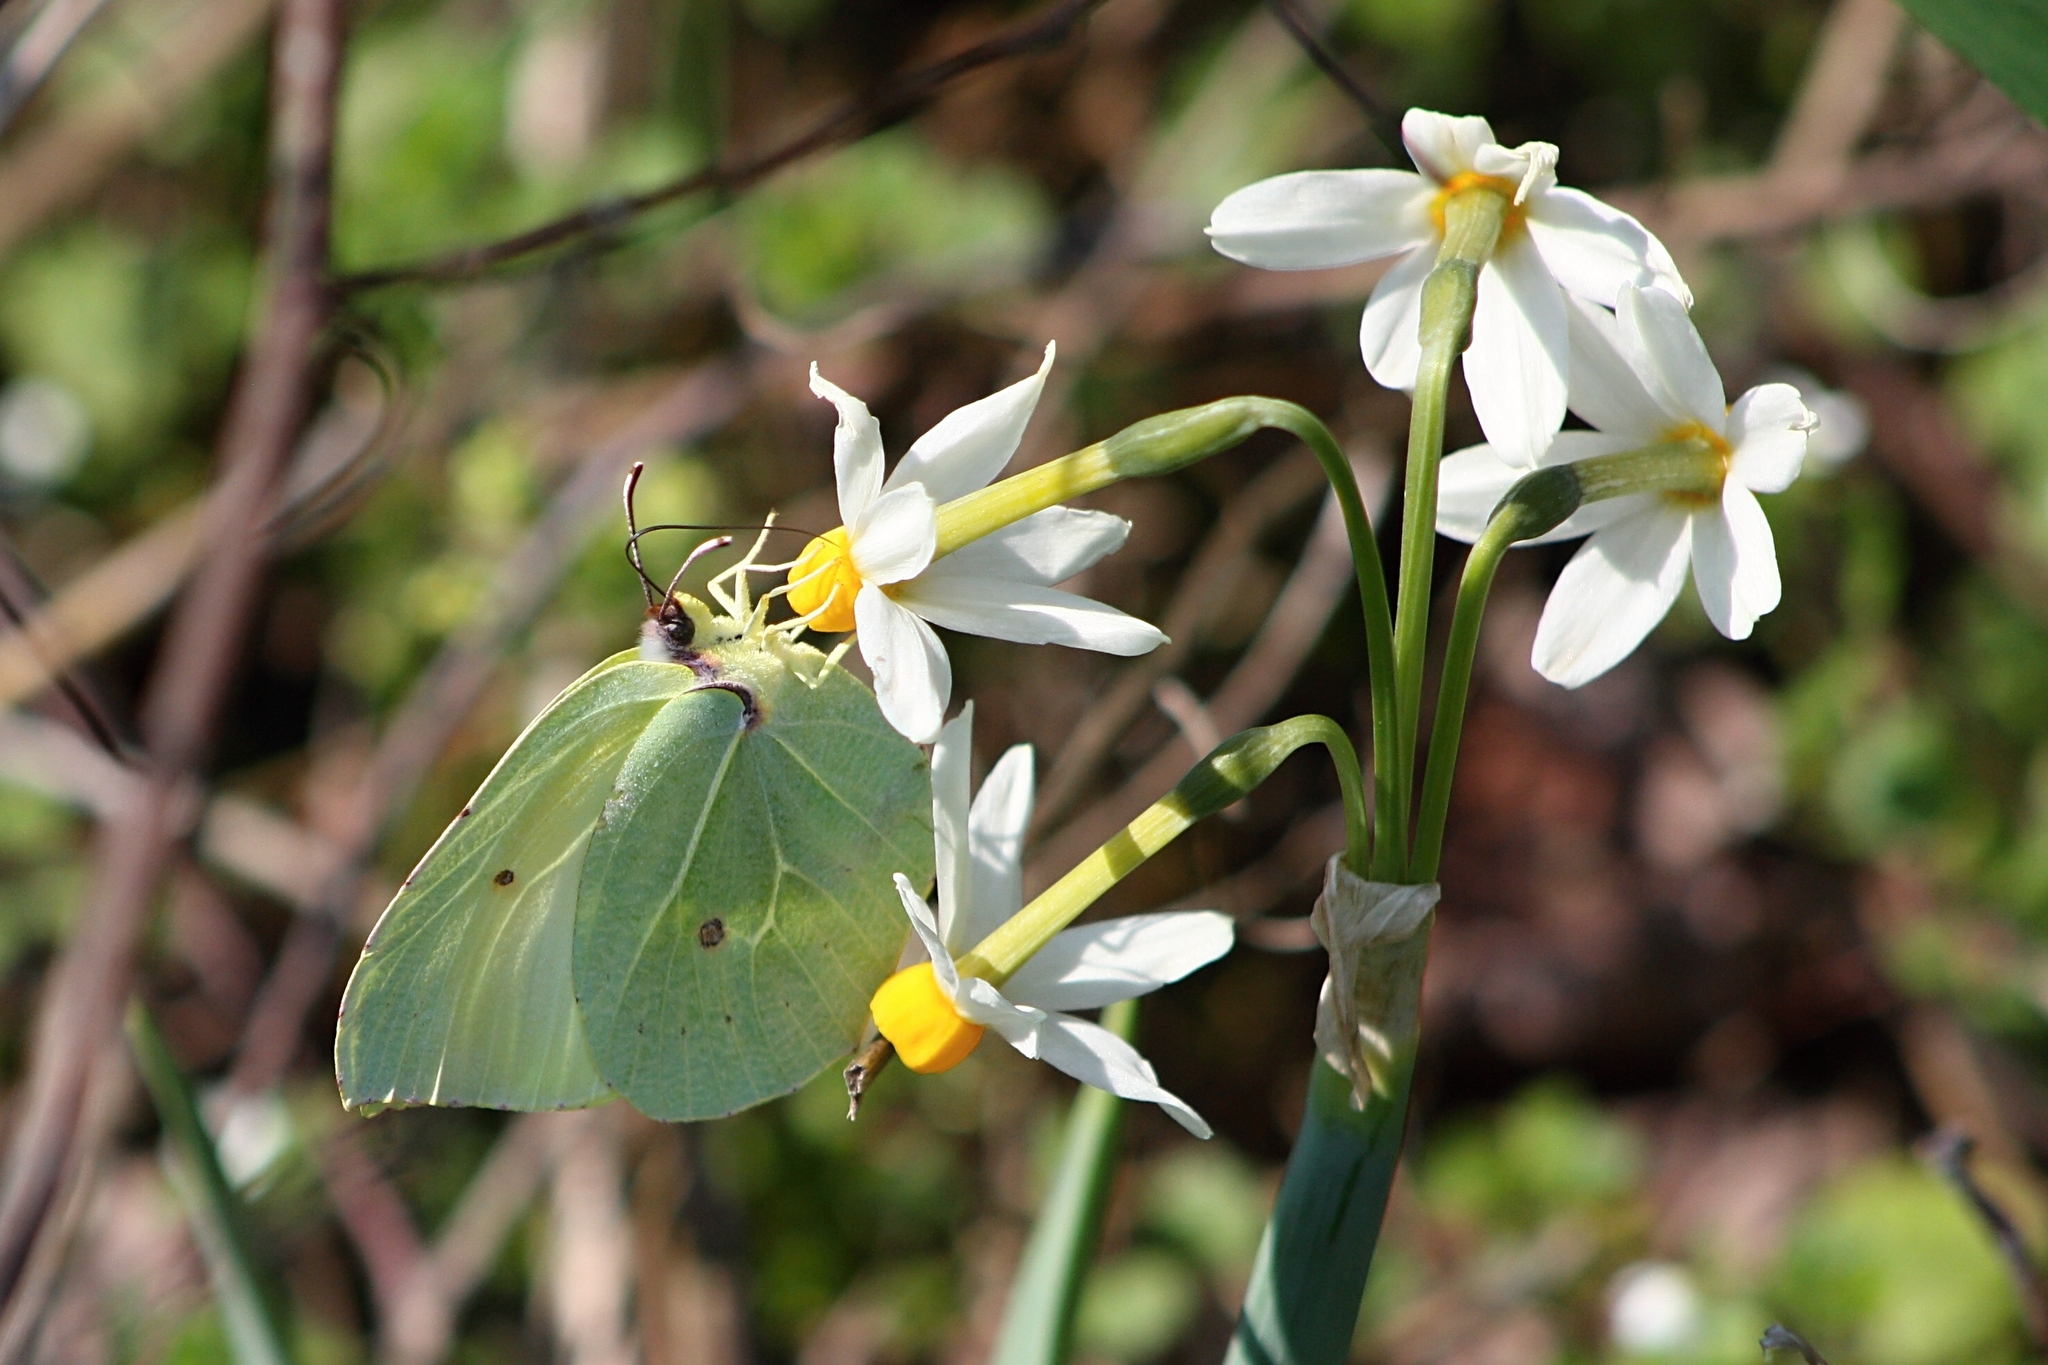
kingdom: Animalia
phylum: Arthropoda
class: Insecta
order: Lepidoptera
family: Pieridae
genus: Gonepteryx
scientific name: Gonepteryx cleopatra
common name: Cleopatra
